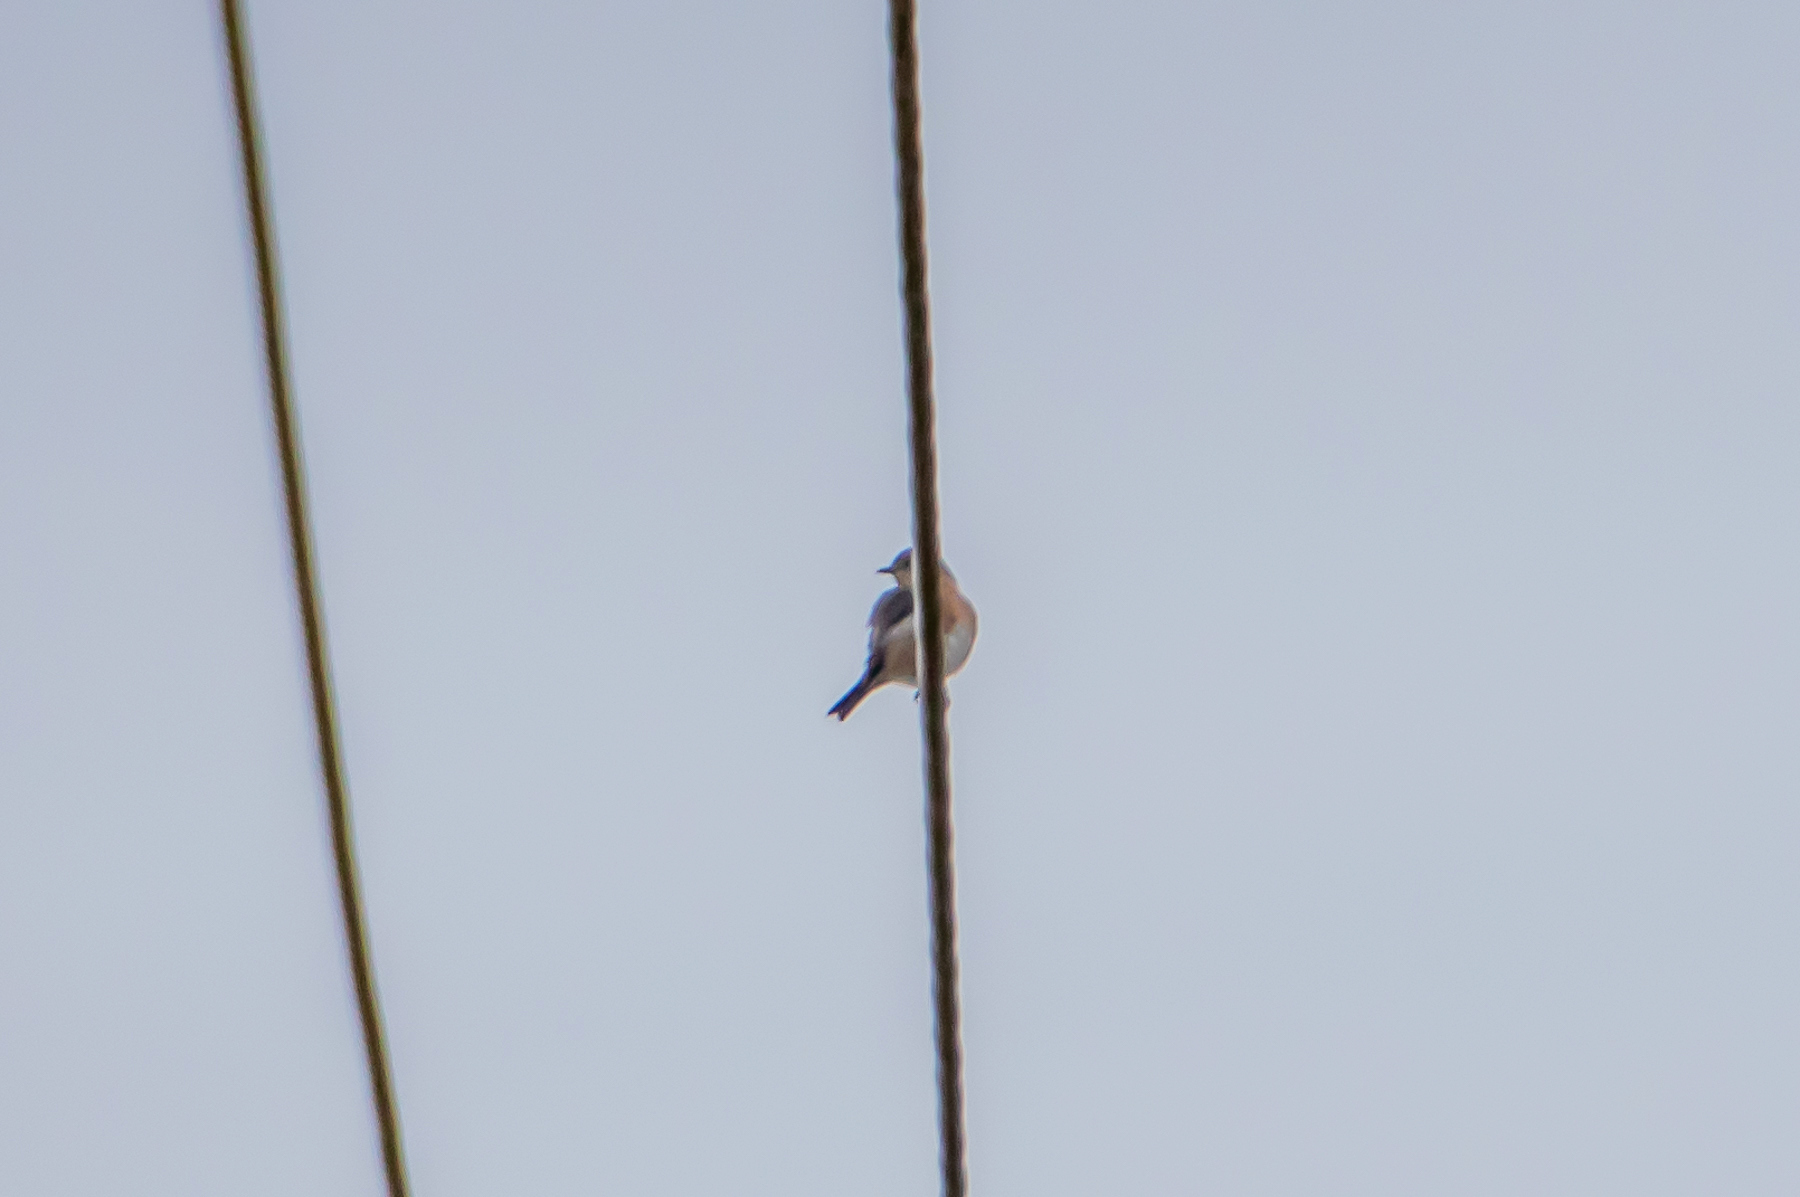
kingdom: Animalia
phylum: Chordata
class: Aves
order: Passeriformes
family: Turdidae
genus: Sialia
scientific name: Sialia sialis
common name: Eastern bluebird
